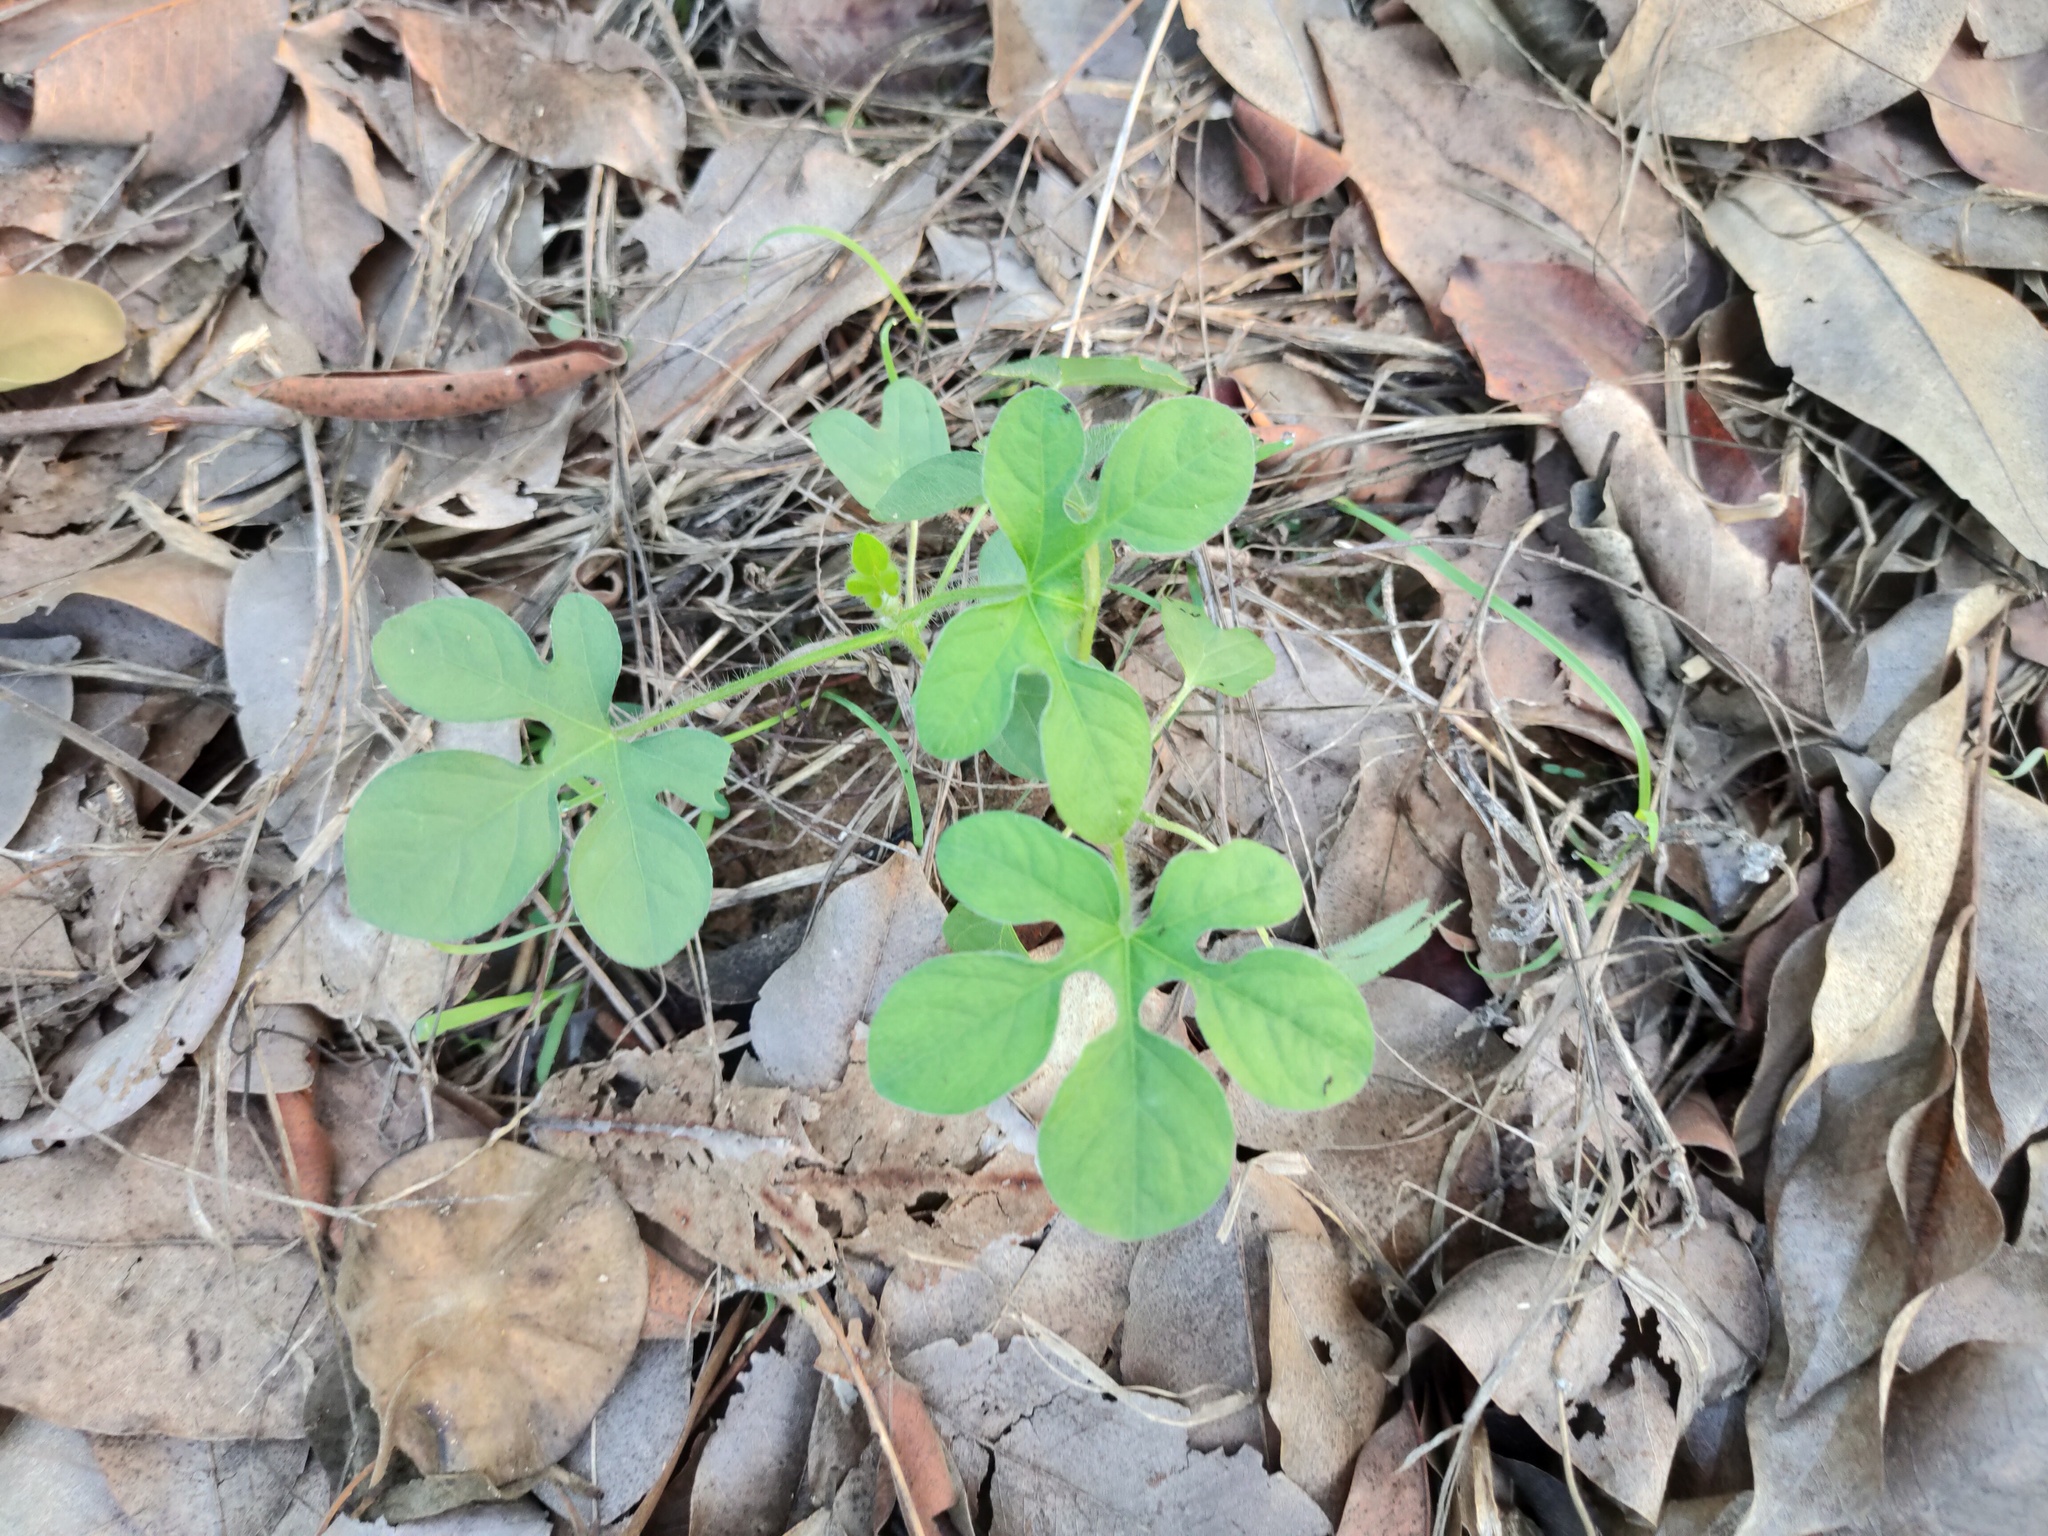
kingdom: Plantae
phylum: Tracheophyta
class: Magnoliopsida
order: Solanales
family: Convolvulaceae
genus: Ipomoea
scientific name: Ipomoea pes-tigridis
